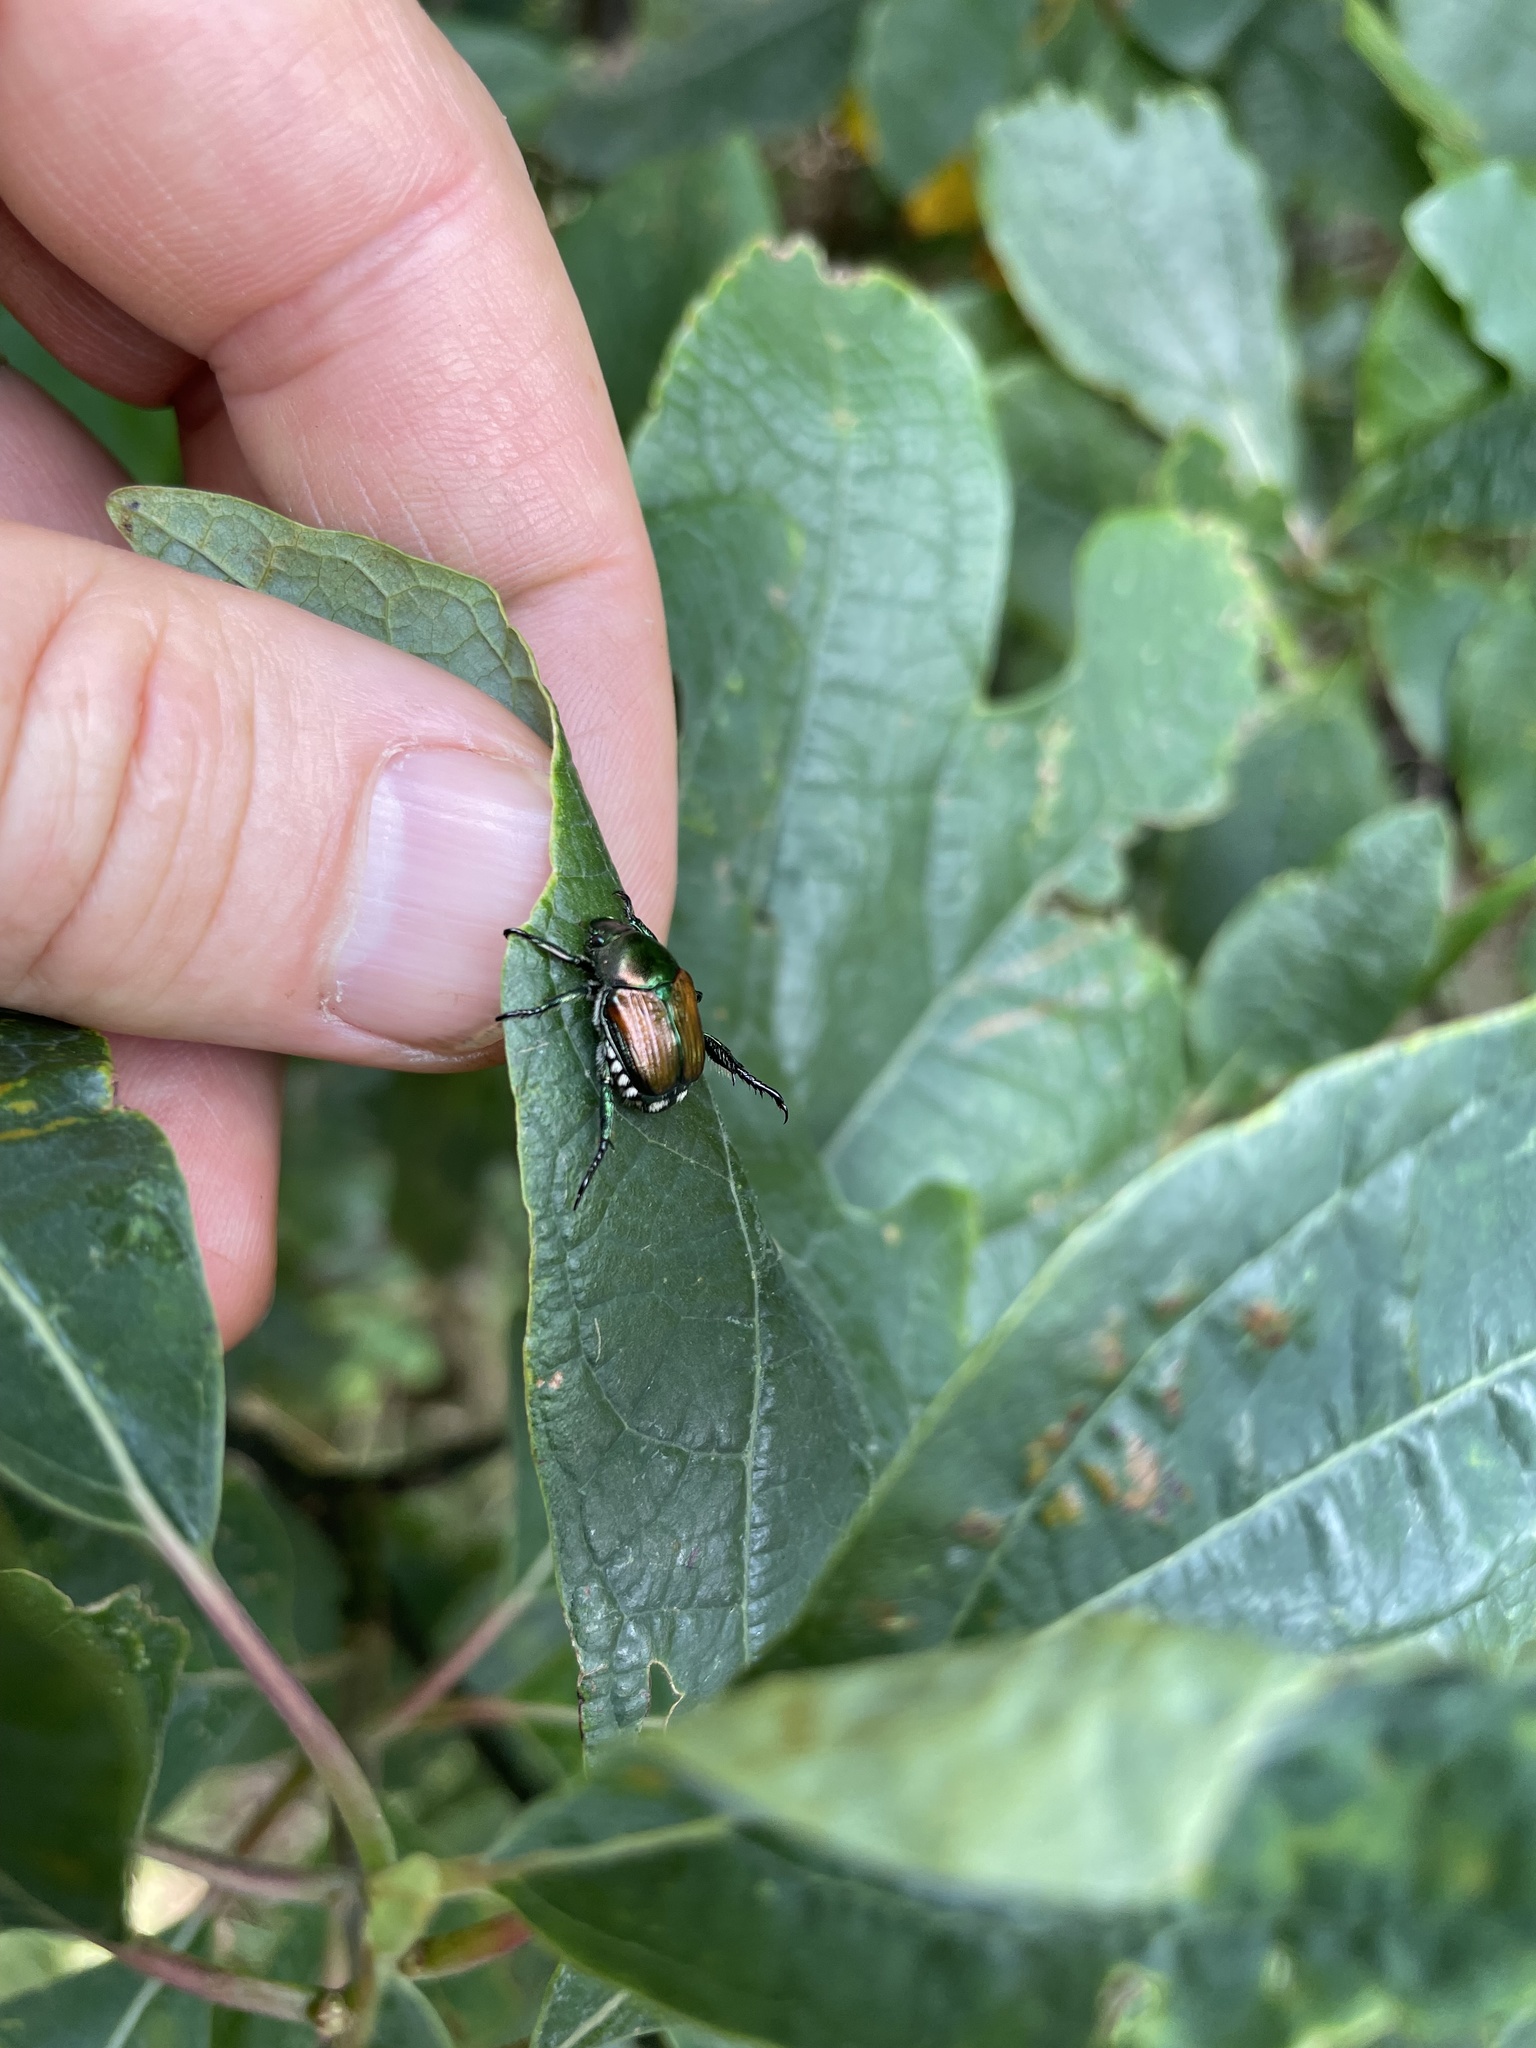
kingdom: Animalia
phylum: Arthropoda
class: Insecta
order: Coleoptera
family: Scarabaeidae
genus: Popillia
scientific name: Popillia japonica
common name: Japanese beetle
